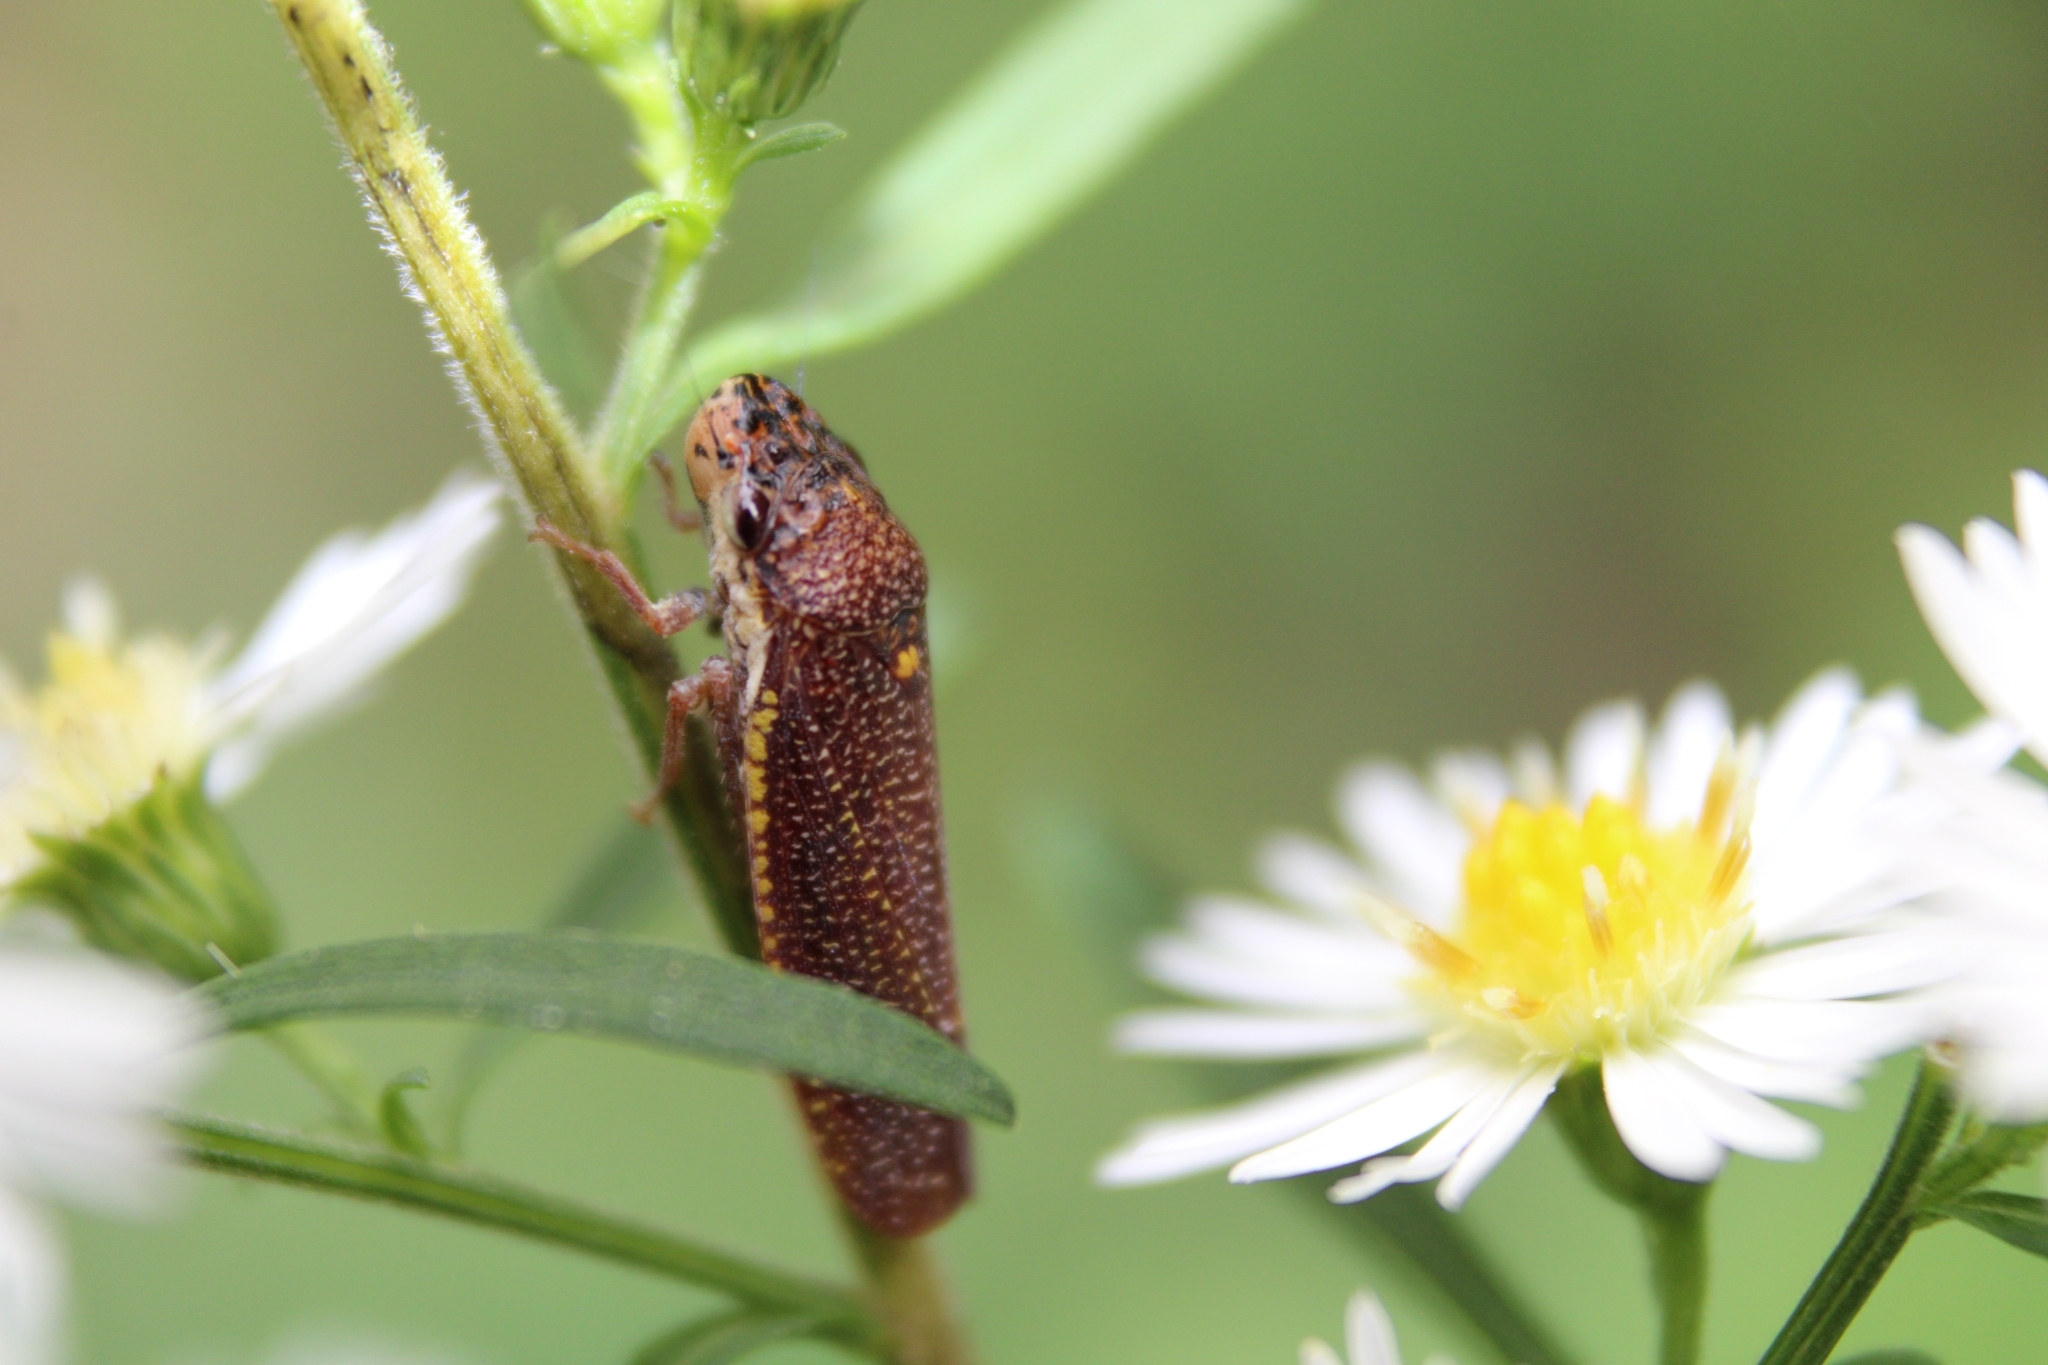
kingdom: Animalia
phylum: Arthropoda
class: Insecta
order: Hemiptera
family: Cicadellidae
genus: Paraulacizes
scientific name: Paraulacizes irrorata
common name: Speckled sharpshooter
